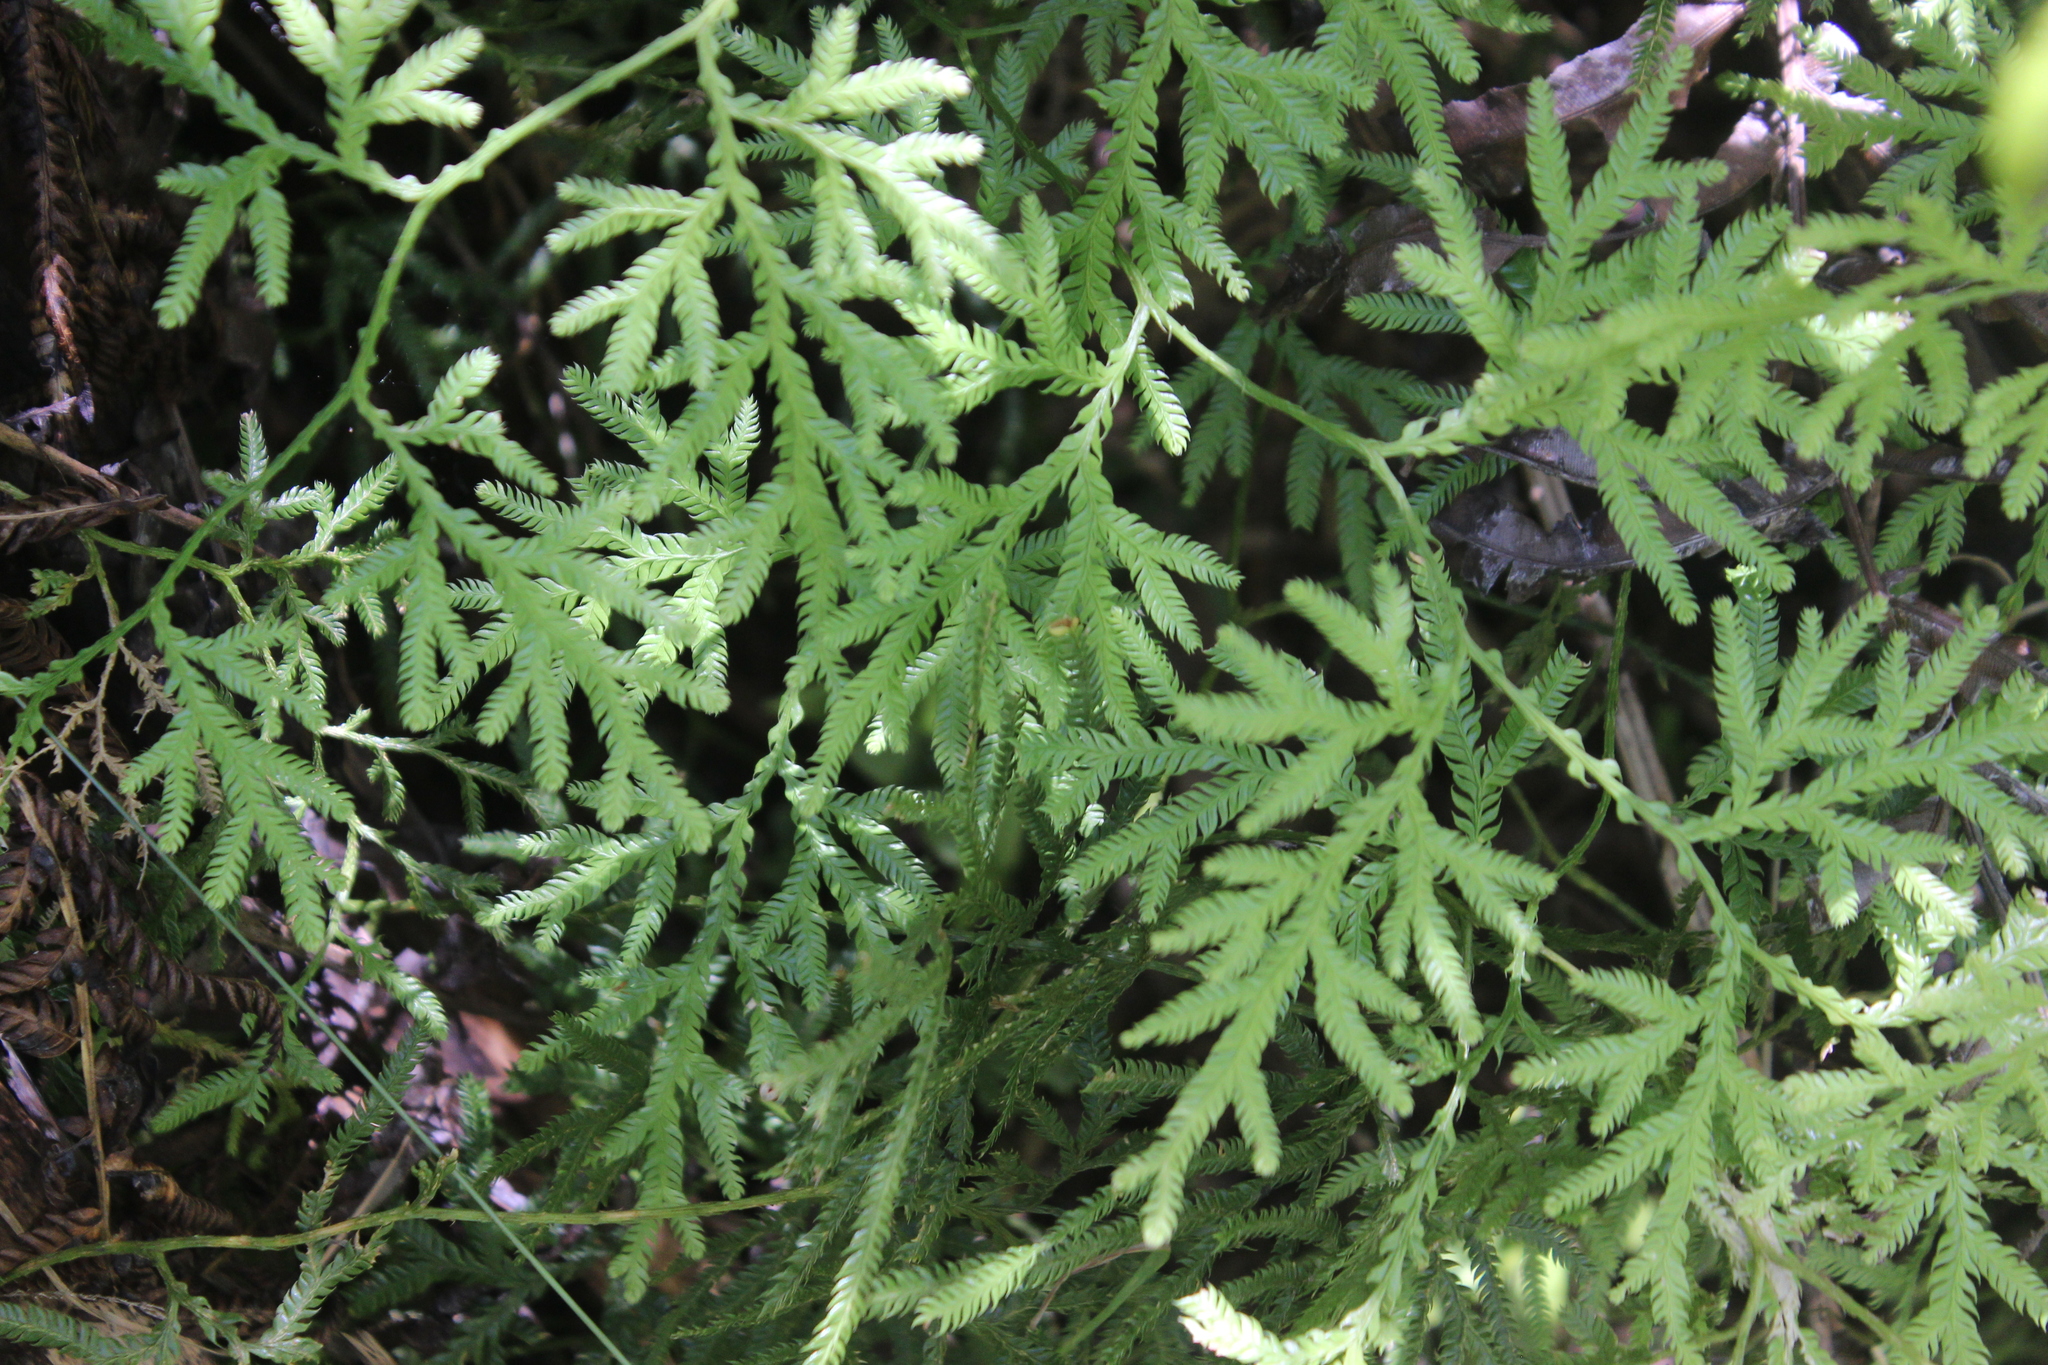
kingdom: Plantae
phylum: Tracheophyta
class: Lycopodiopsida
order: Lycopodiales
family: Lycopodiaceae
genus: Lycopodium
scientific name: Lycopodium volubile
